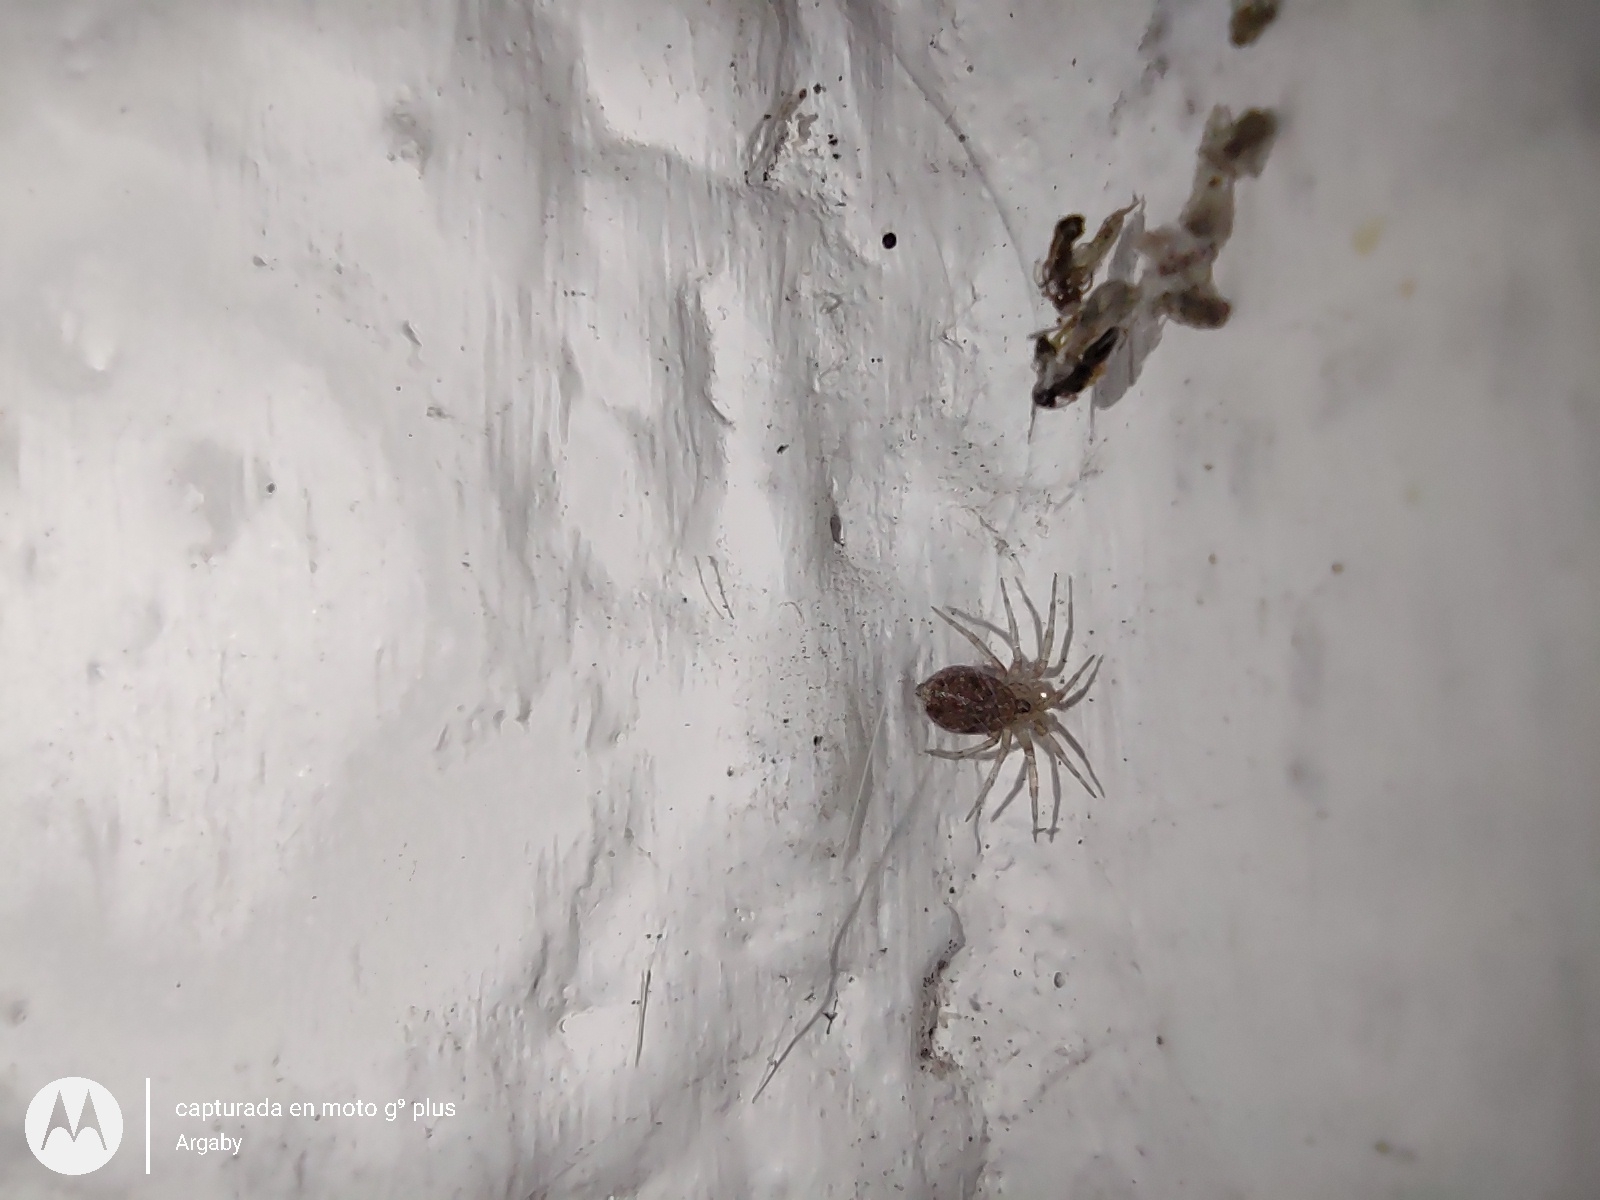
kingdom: Animalia
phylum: Arthropoda
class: Arachnida
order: Araneae
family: Oecobiidae
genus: Oecobius
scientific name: Oecobius navus
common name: Flatmesh weaver
